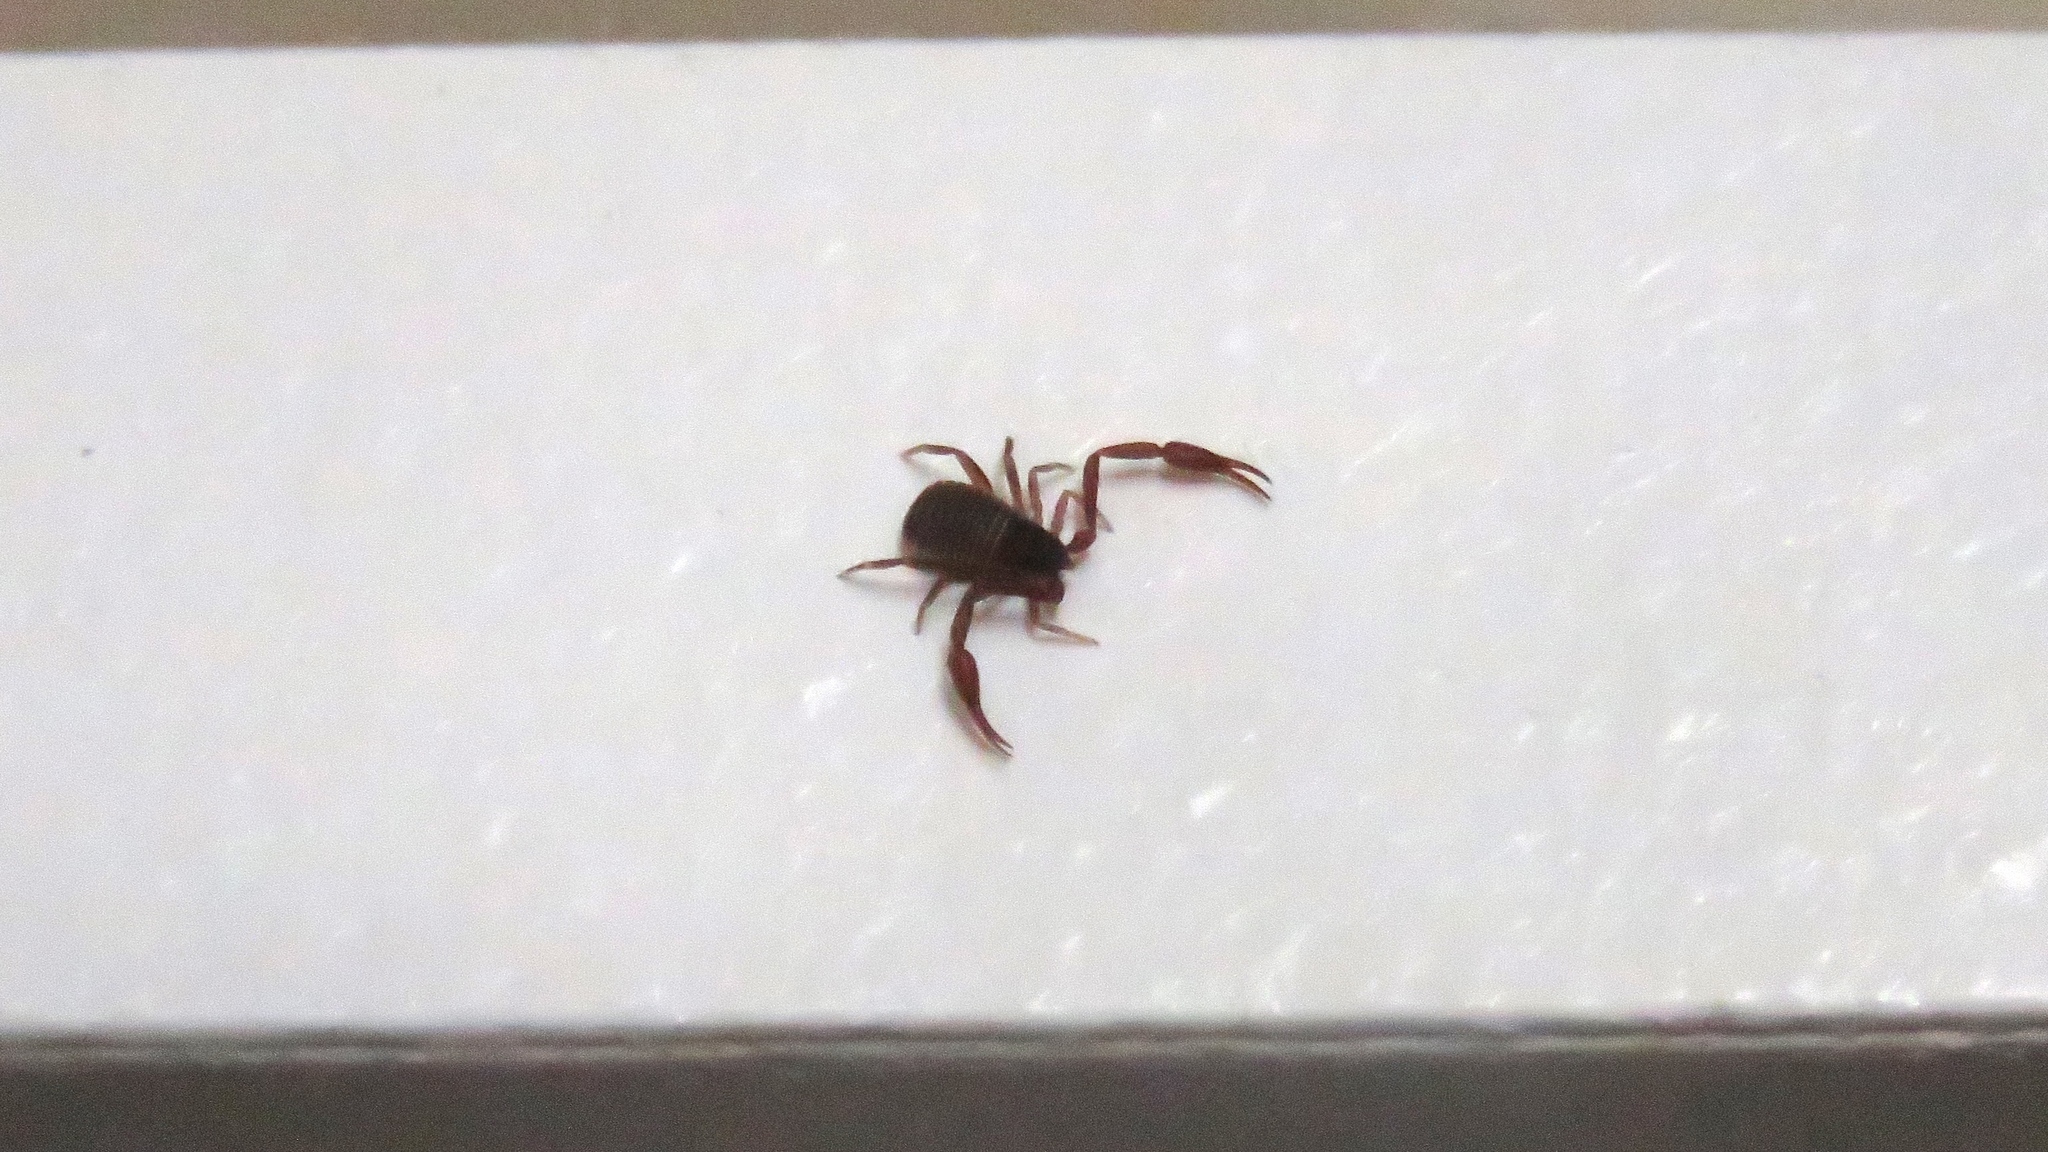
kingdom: Animalia
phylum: Arthropoda
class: Arachnida
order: Pseudoscorpiones
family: Cheliferidae
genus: Chelifer
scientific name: Chelifer cancroides
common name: House false-scorpion
